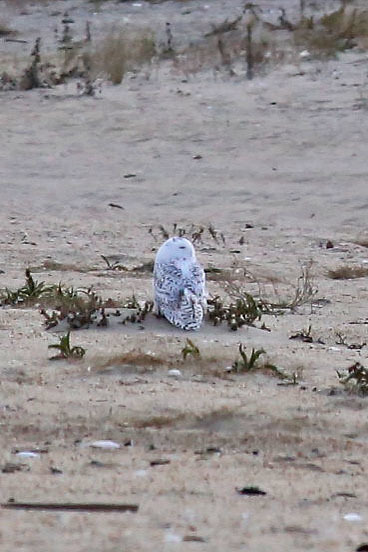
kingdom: Animalia
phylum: Chordata
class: Aves
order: Strigiformes
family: Strigidae
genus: Bubo
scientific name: Bubo scandiacus
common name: Snowy owl
